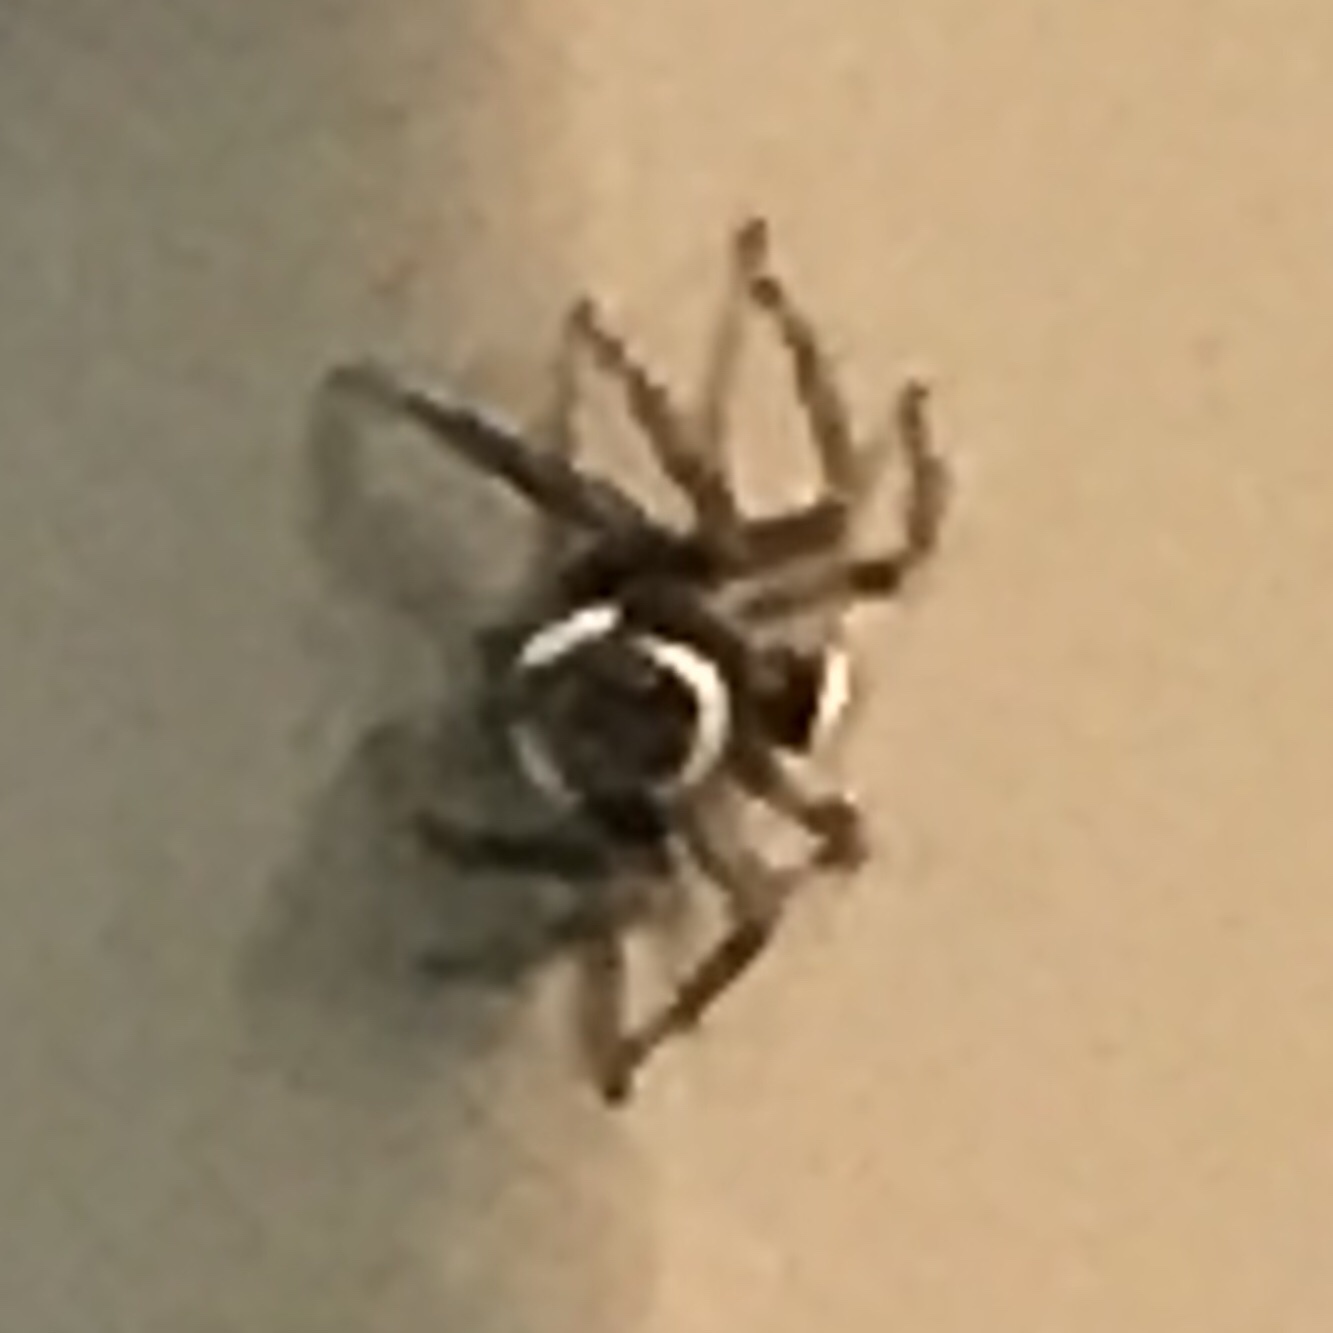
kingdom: Animalia
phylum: Arthropoda
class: Arachnida
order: Araneae
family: Salticidae
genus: Hasarius
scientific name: Hasarius adansoni
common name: Jumping spider
